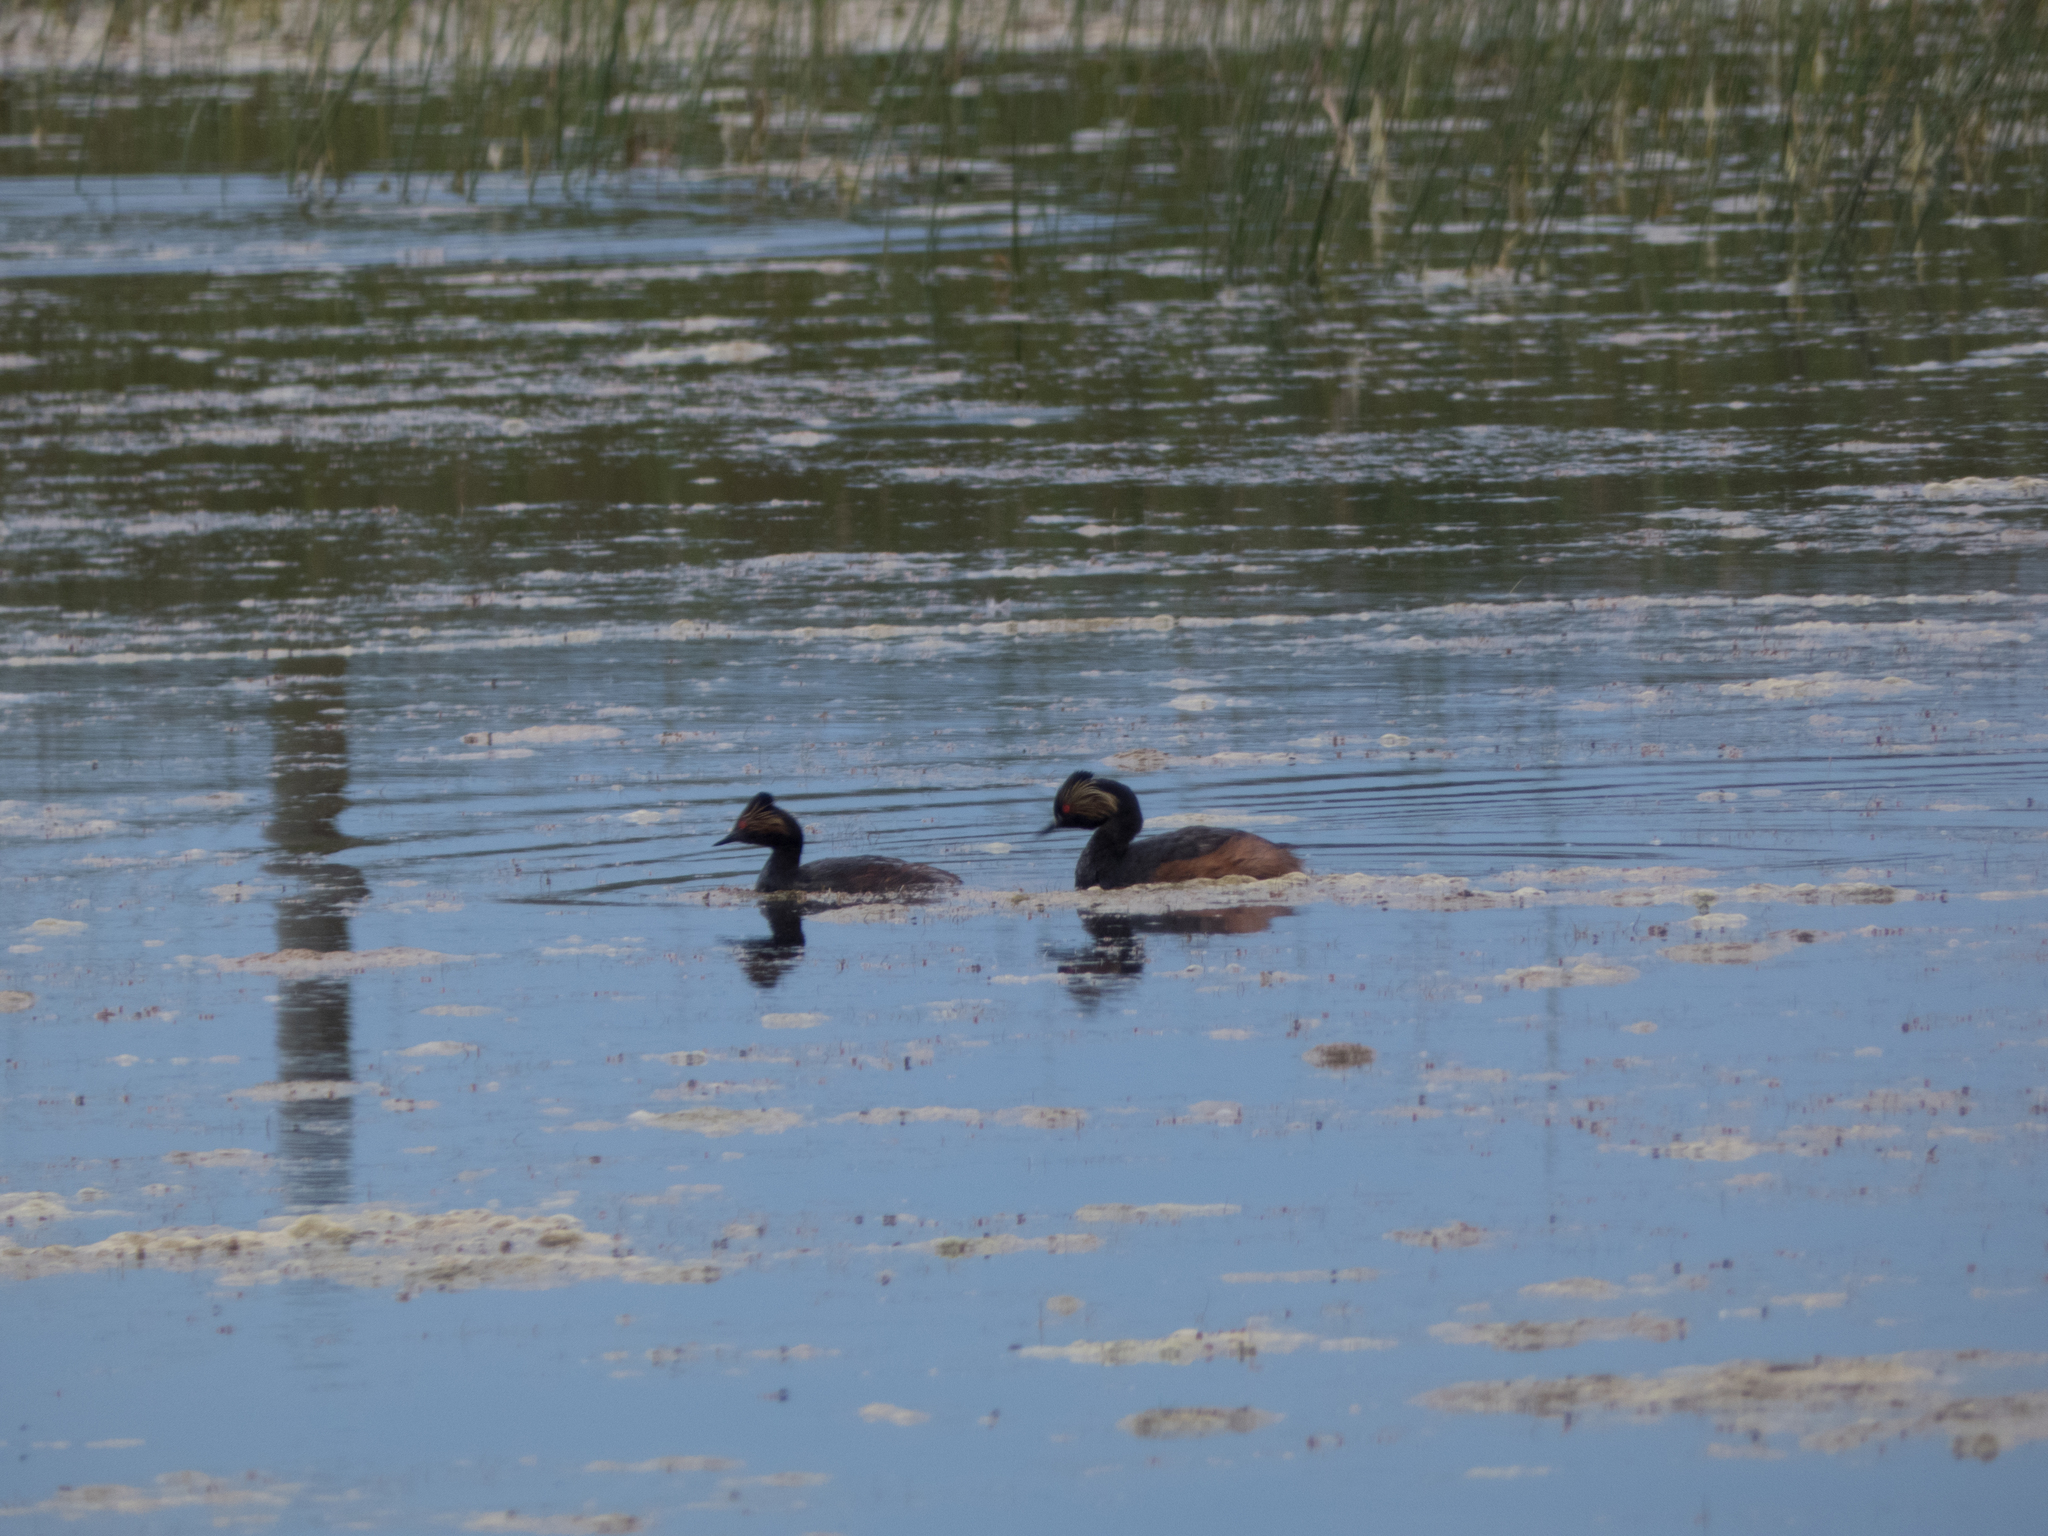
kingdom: Animalia
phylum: Chordata
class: Aves
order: Podicipediformes
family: Podicipedidae
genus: Podiceps
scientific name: Podiceps nigricollis
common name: Black-necked grebe
